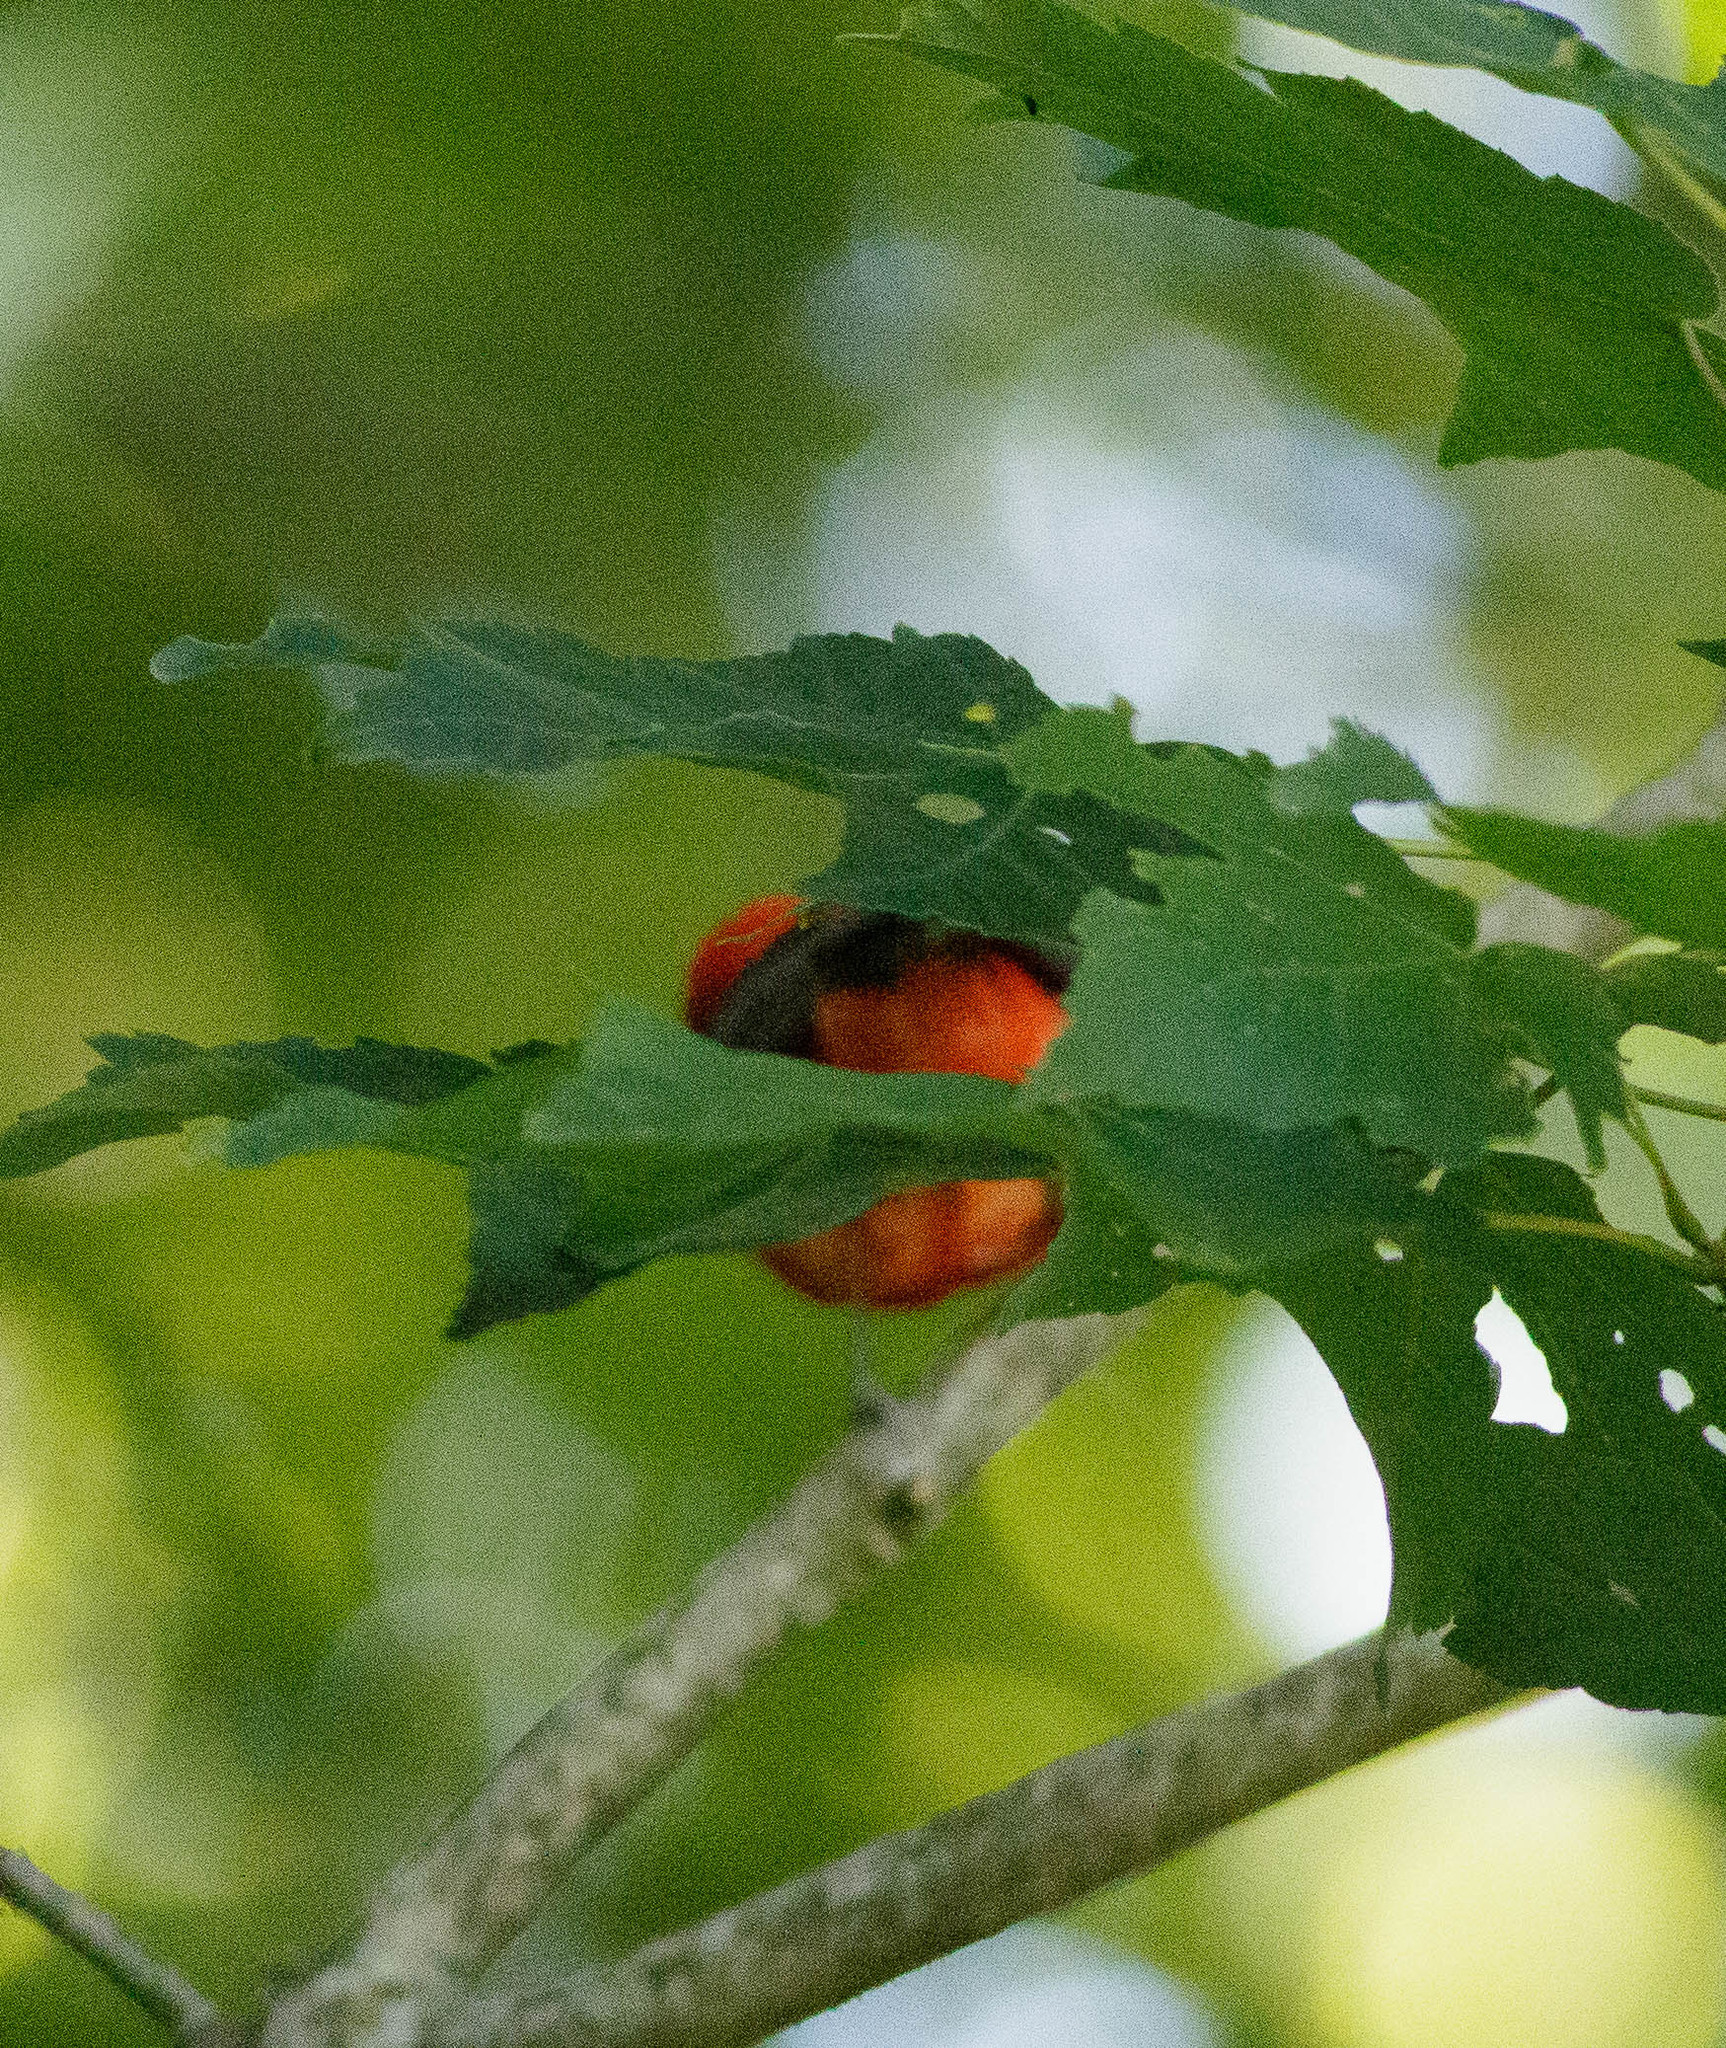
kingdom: Animalia
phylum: Chordata
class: Aves
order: Passeriformes
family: Cardinalidae
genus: Piranga
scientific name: Piranga olivacea
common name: Scarlet tanager
